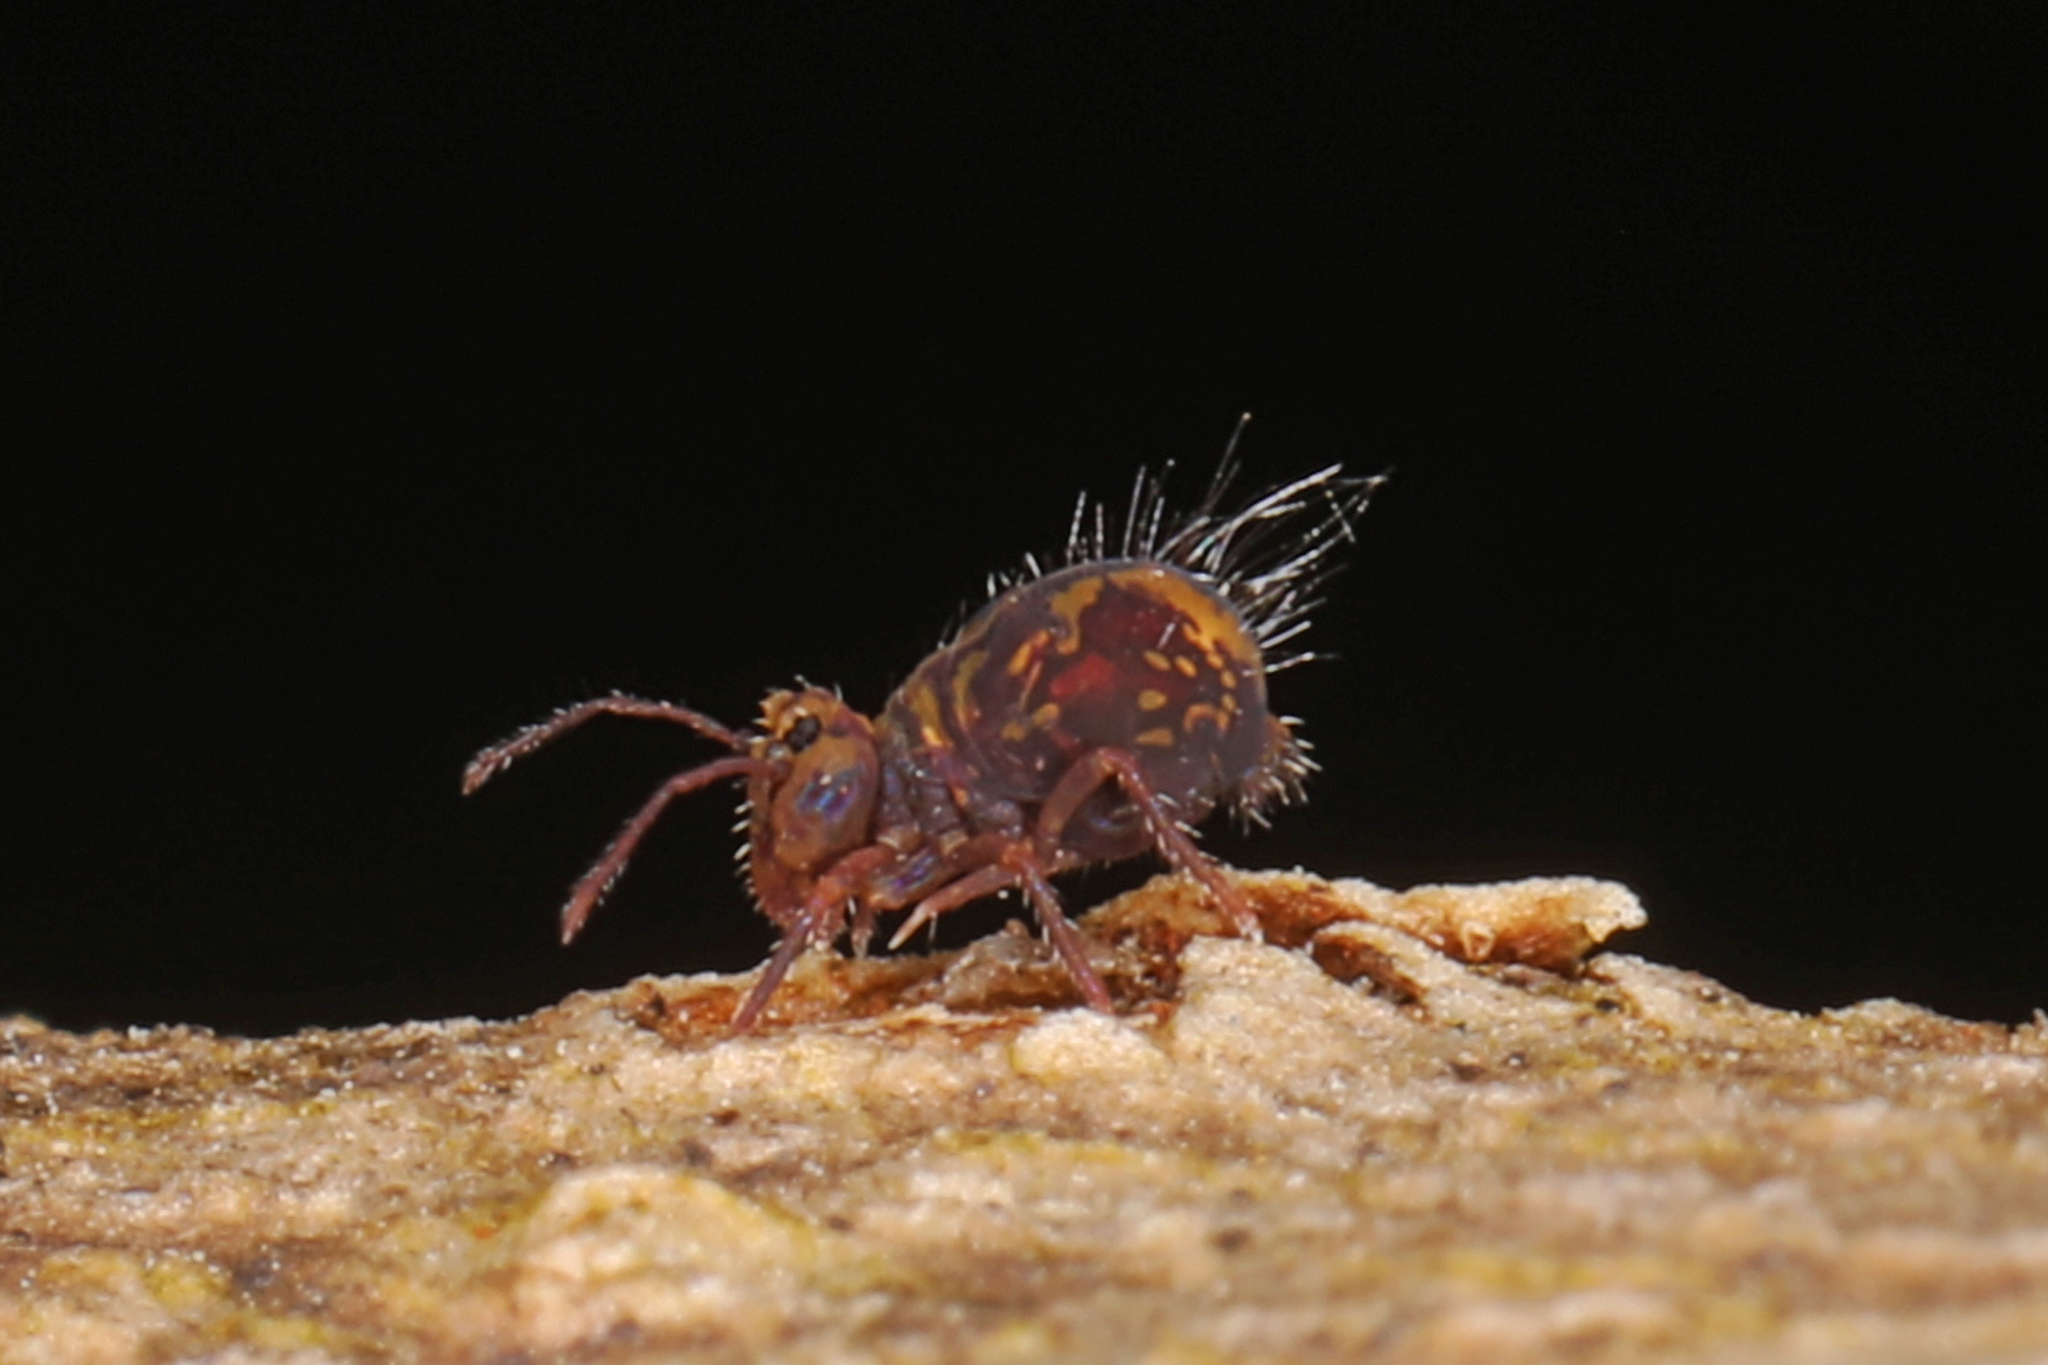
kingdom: Animalia
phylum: Arthropoda
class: Collembola
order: Symphypleona
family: Dicyrtomidae
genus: Dicyrtomina
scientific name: Dicyrtomina minuta
